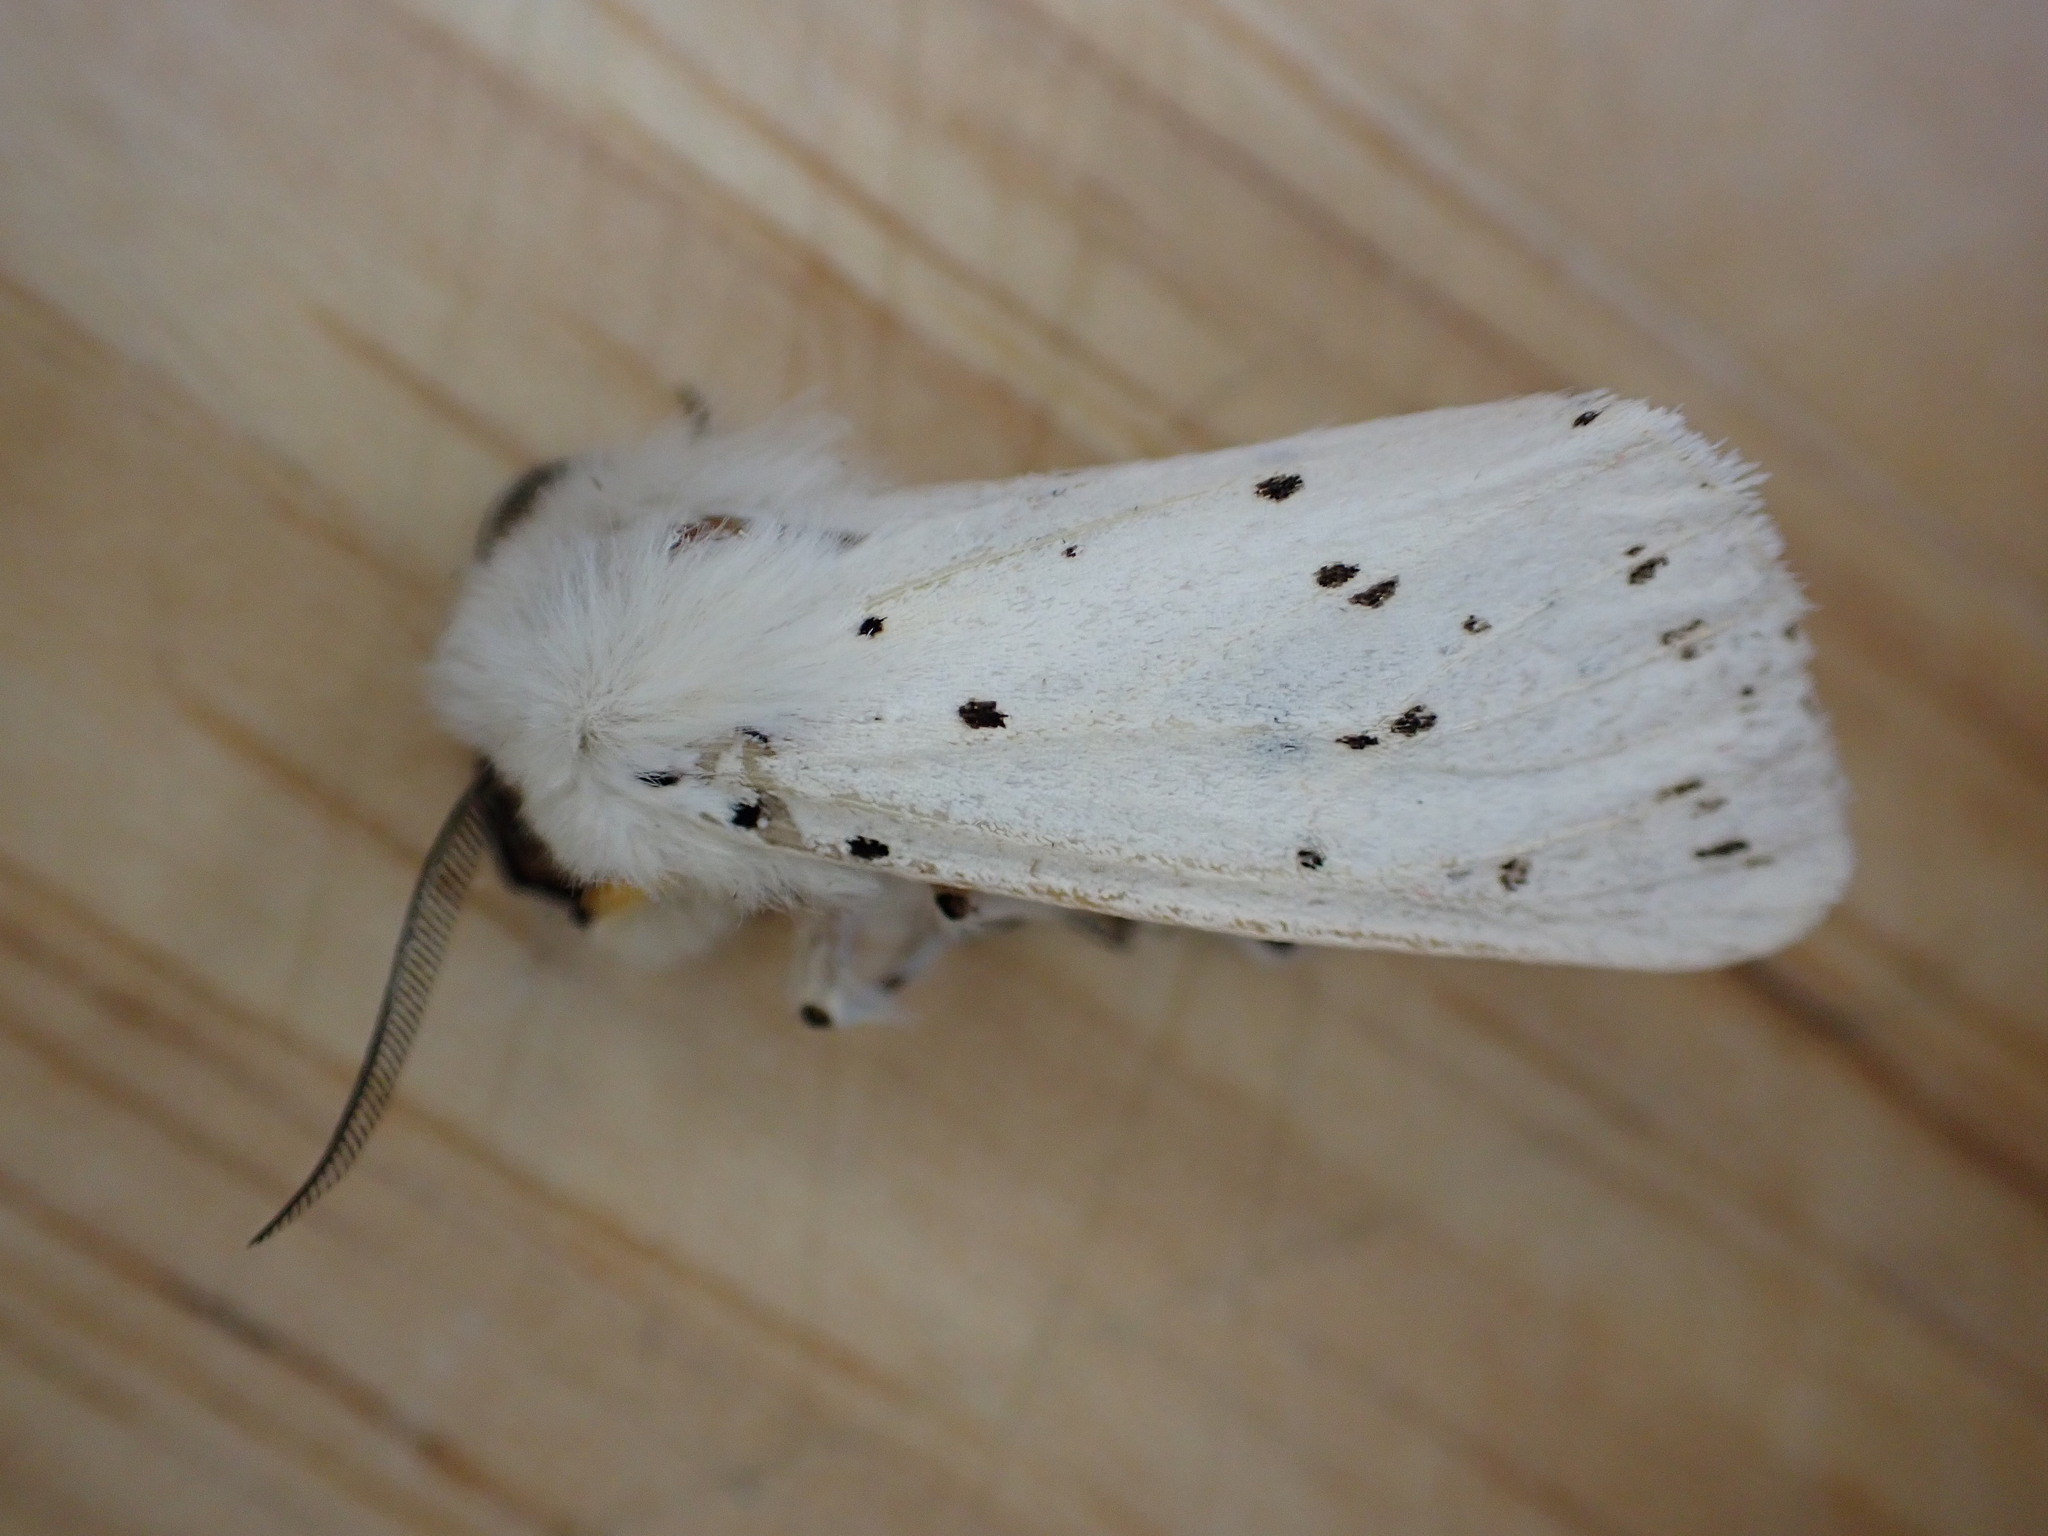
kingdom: Animalia
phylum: Arthropoda
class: Insecta
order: Lepidoptera
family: Erebidae
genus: Spilosoma
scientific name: Spilosoma lubricipeda
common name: White ermine
